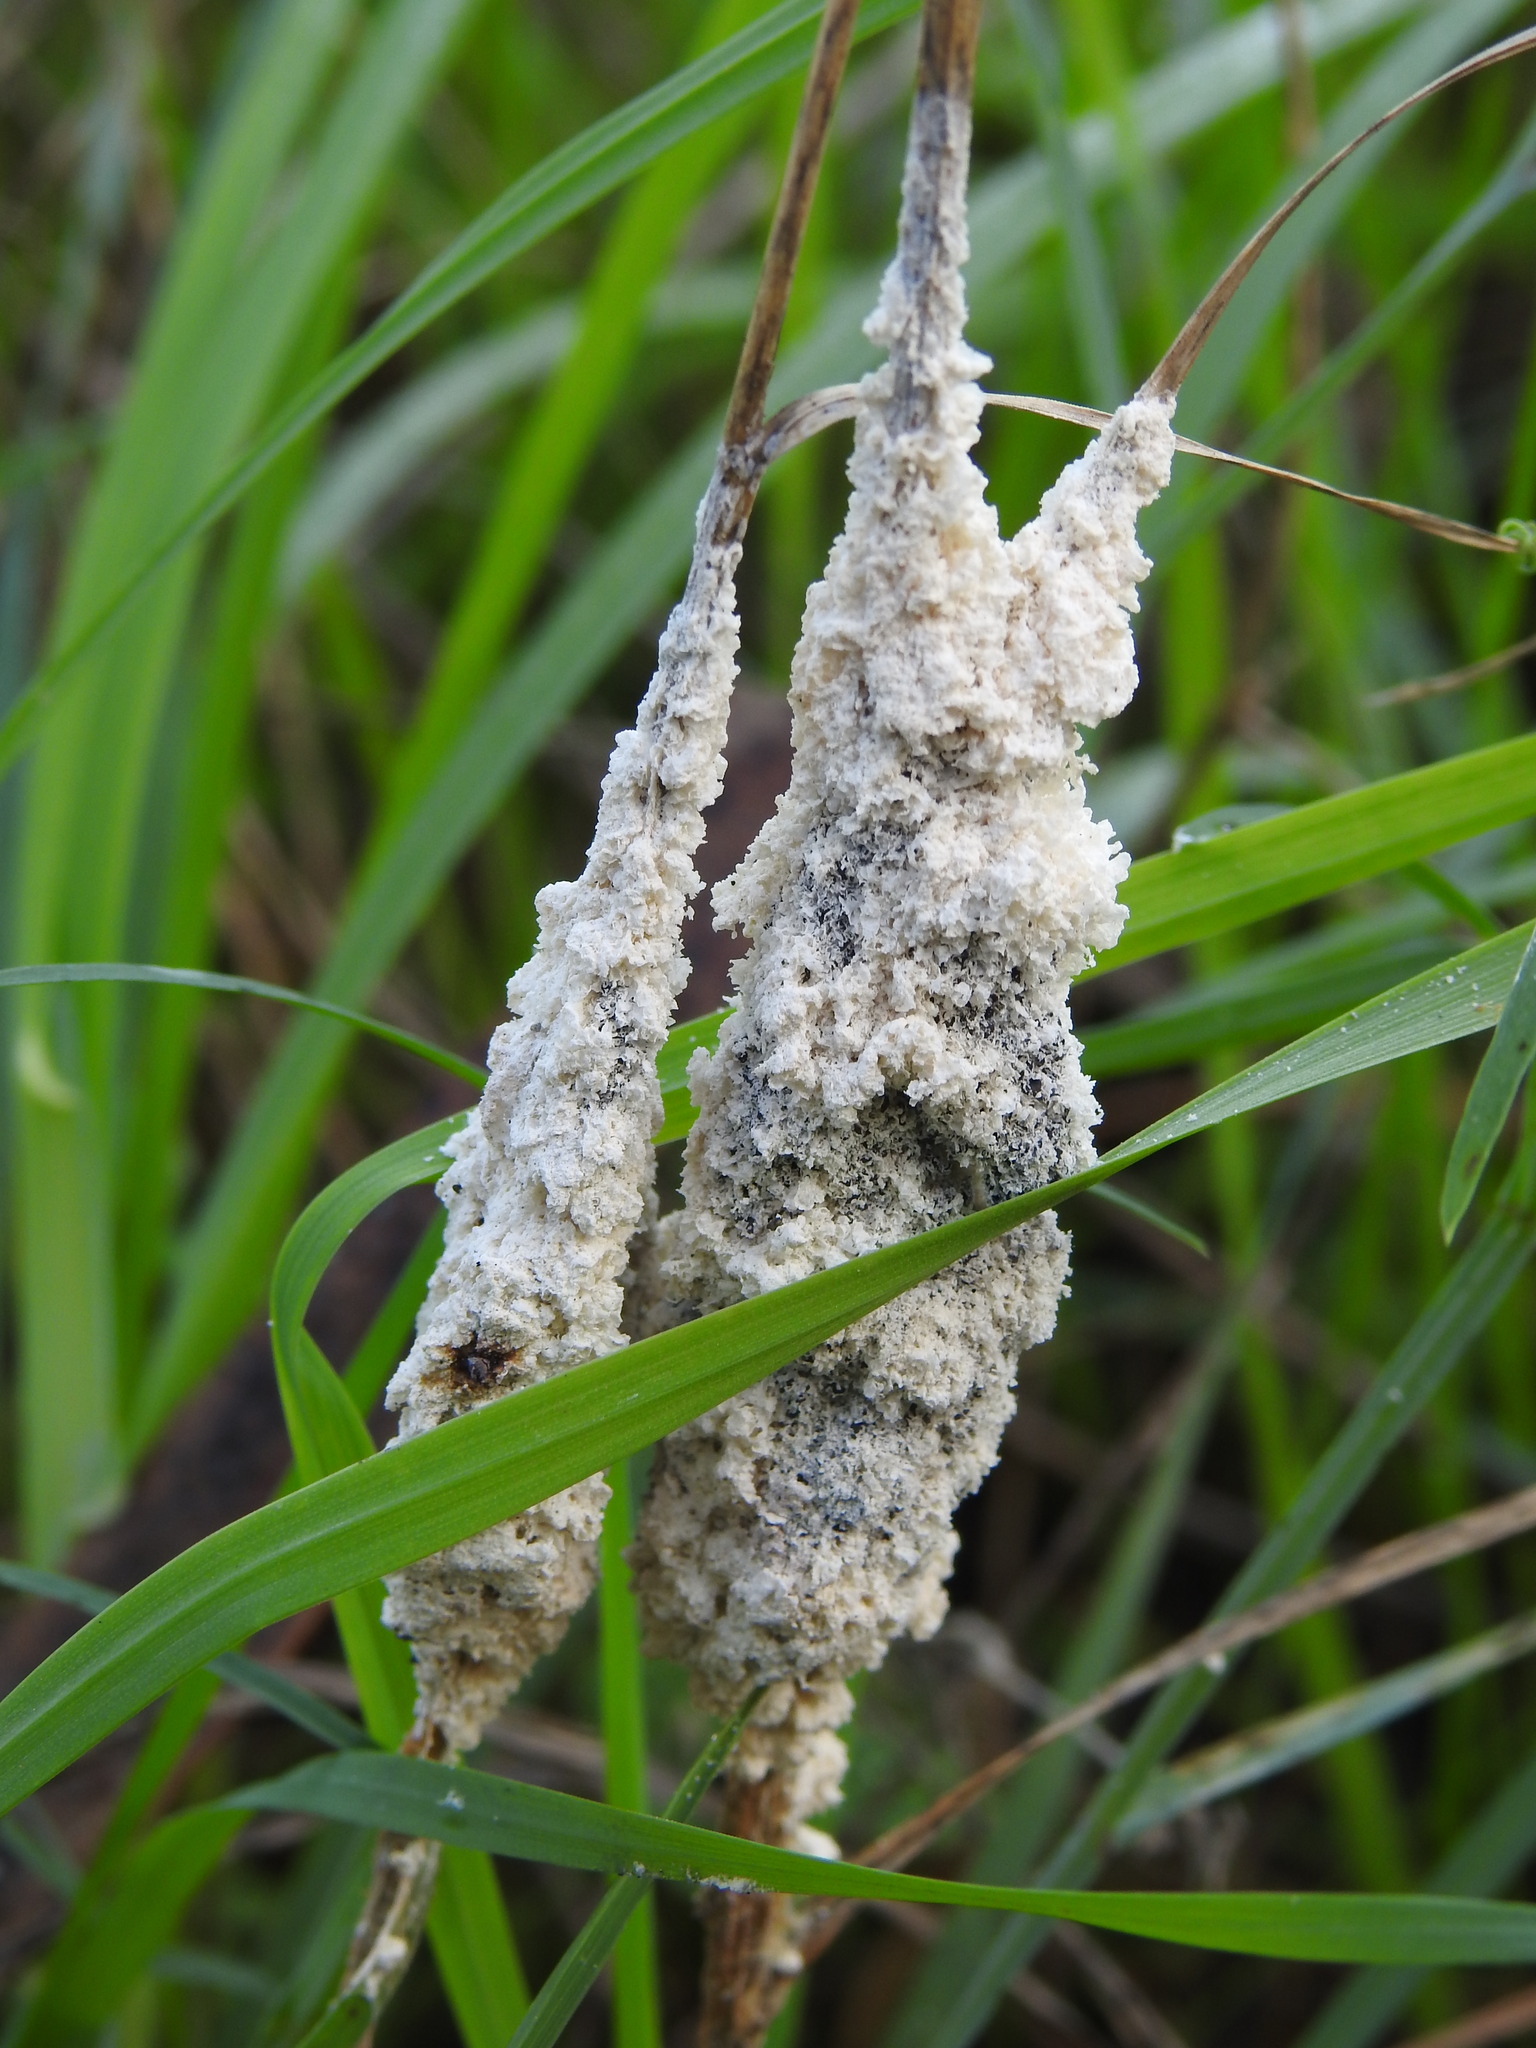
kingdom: Protozoa
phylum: Mycetozoa
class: Myxomycetes
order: Physarales
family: Physaraceae
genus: Didymium
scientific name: Didymium
